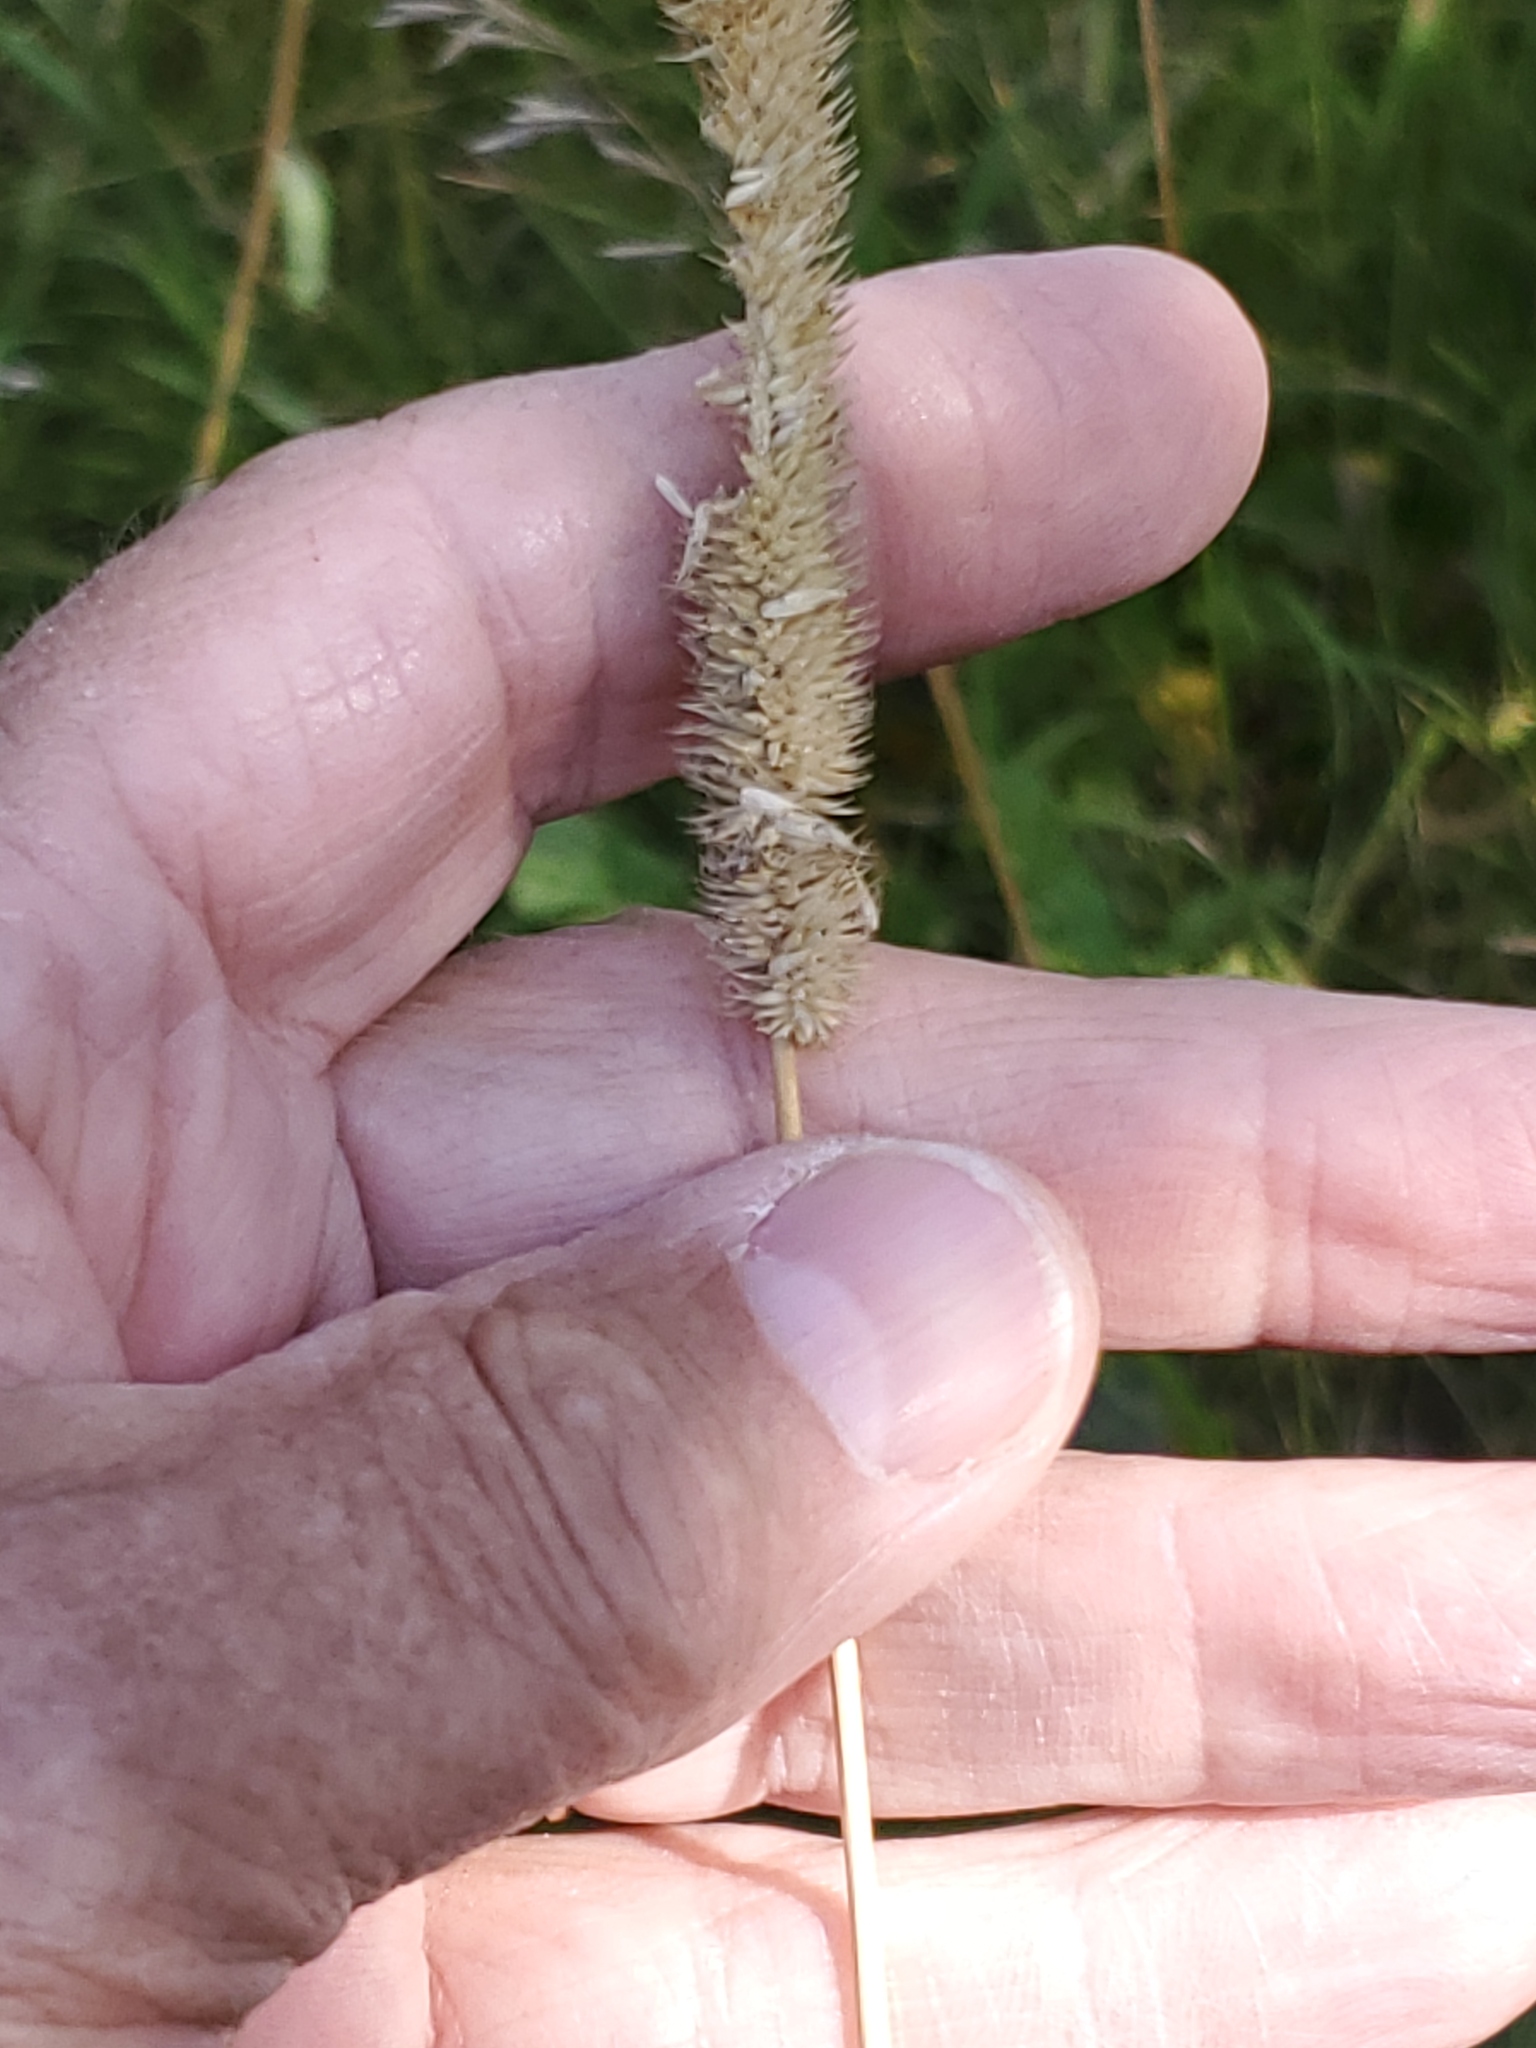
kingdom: Plantae
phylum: Tracheophyta
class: Liliopsida
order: Poales
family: Poaceae
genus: Phleum
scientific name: Phleum pratense
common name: Timothy grass
